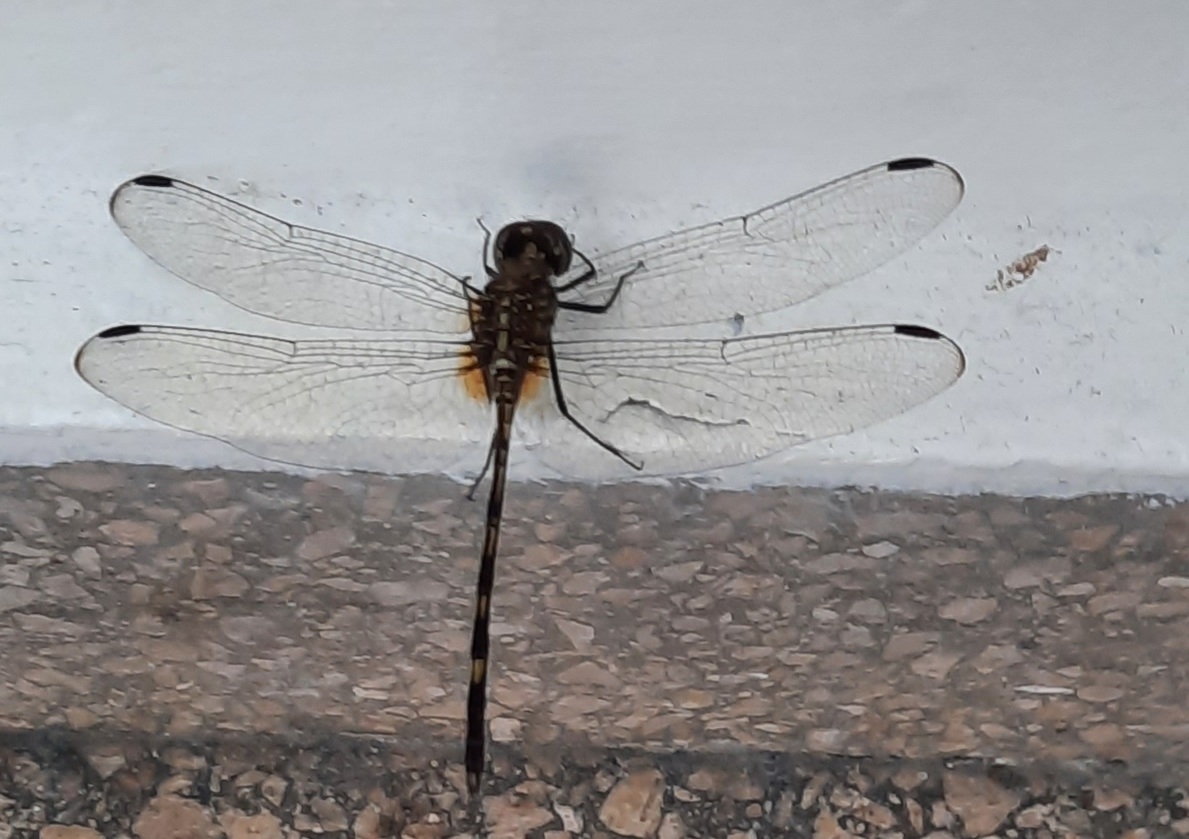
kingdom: Animalia
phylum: Arthropoda
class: Insecta
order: Odonata
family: Libellulidae
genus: Dythemis
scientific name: Dythemis sterilis
